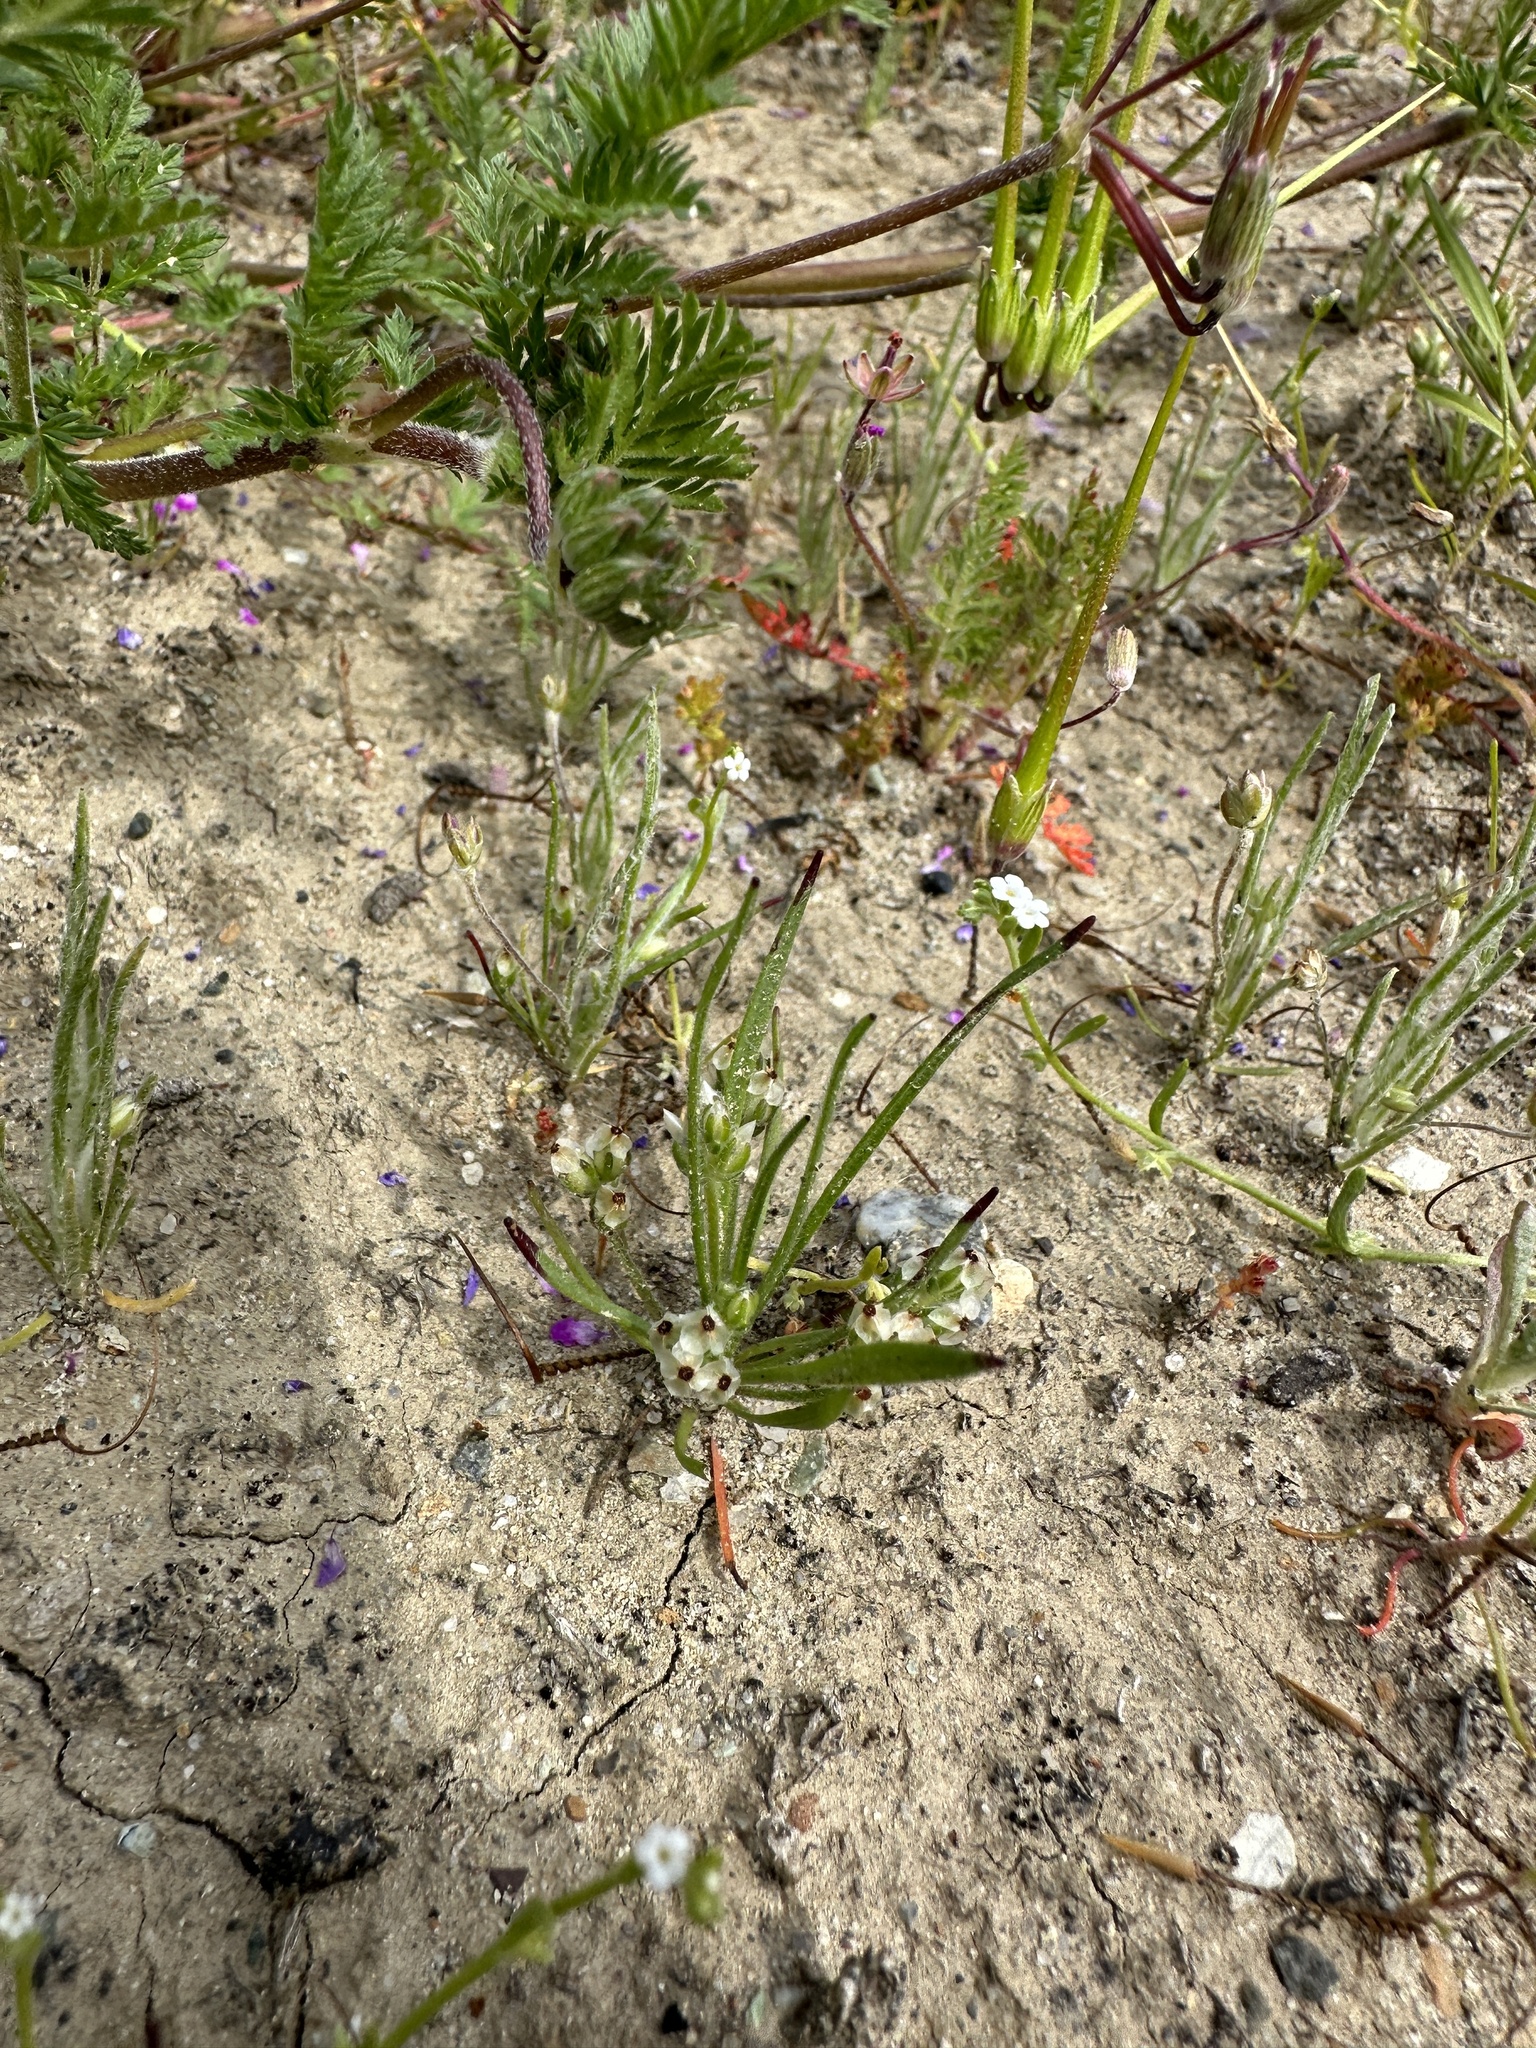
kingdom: Plantae
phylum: Tracheophyta
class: Magnoliopsida
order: Lamiales
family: Plantaginaceae
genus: Plantago
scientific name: Plantago erecta
